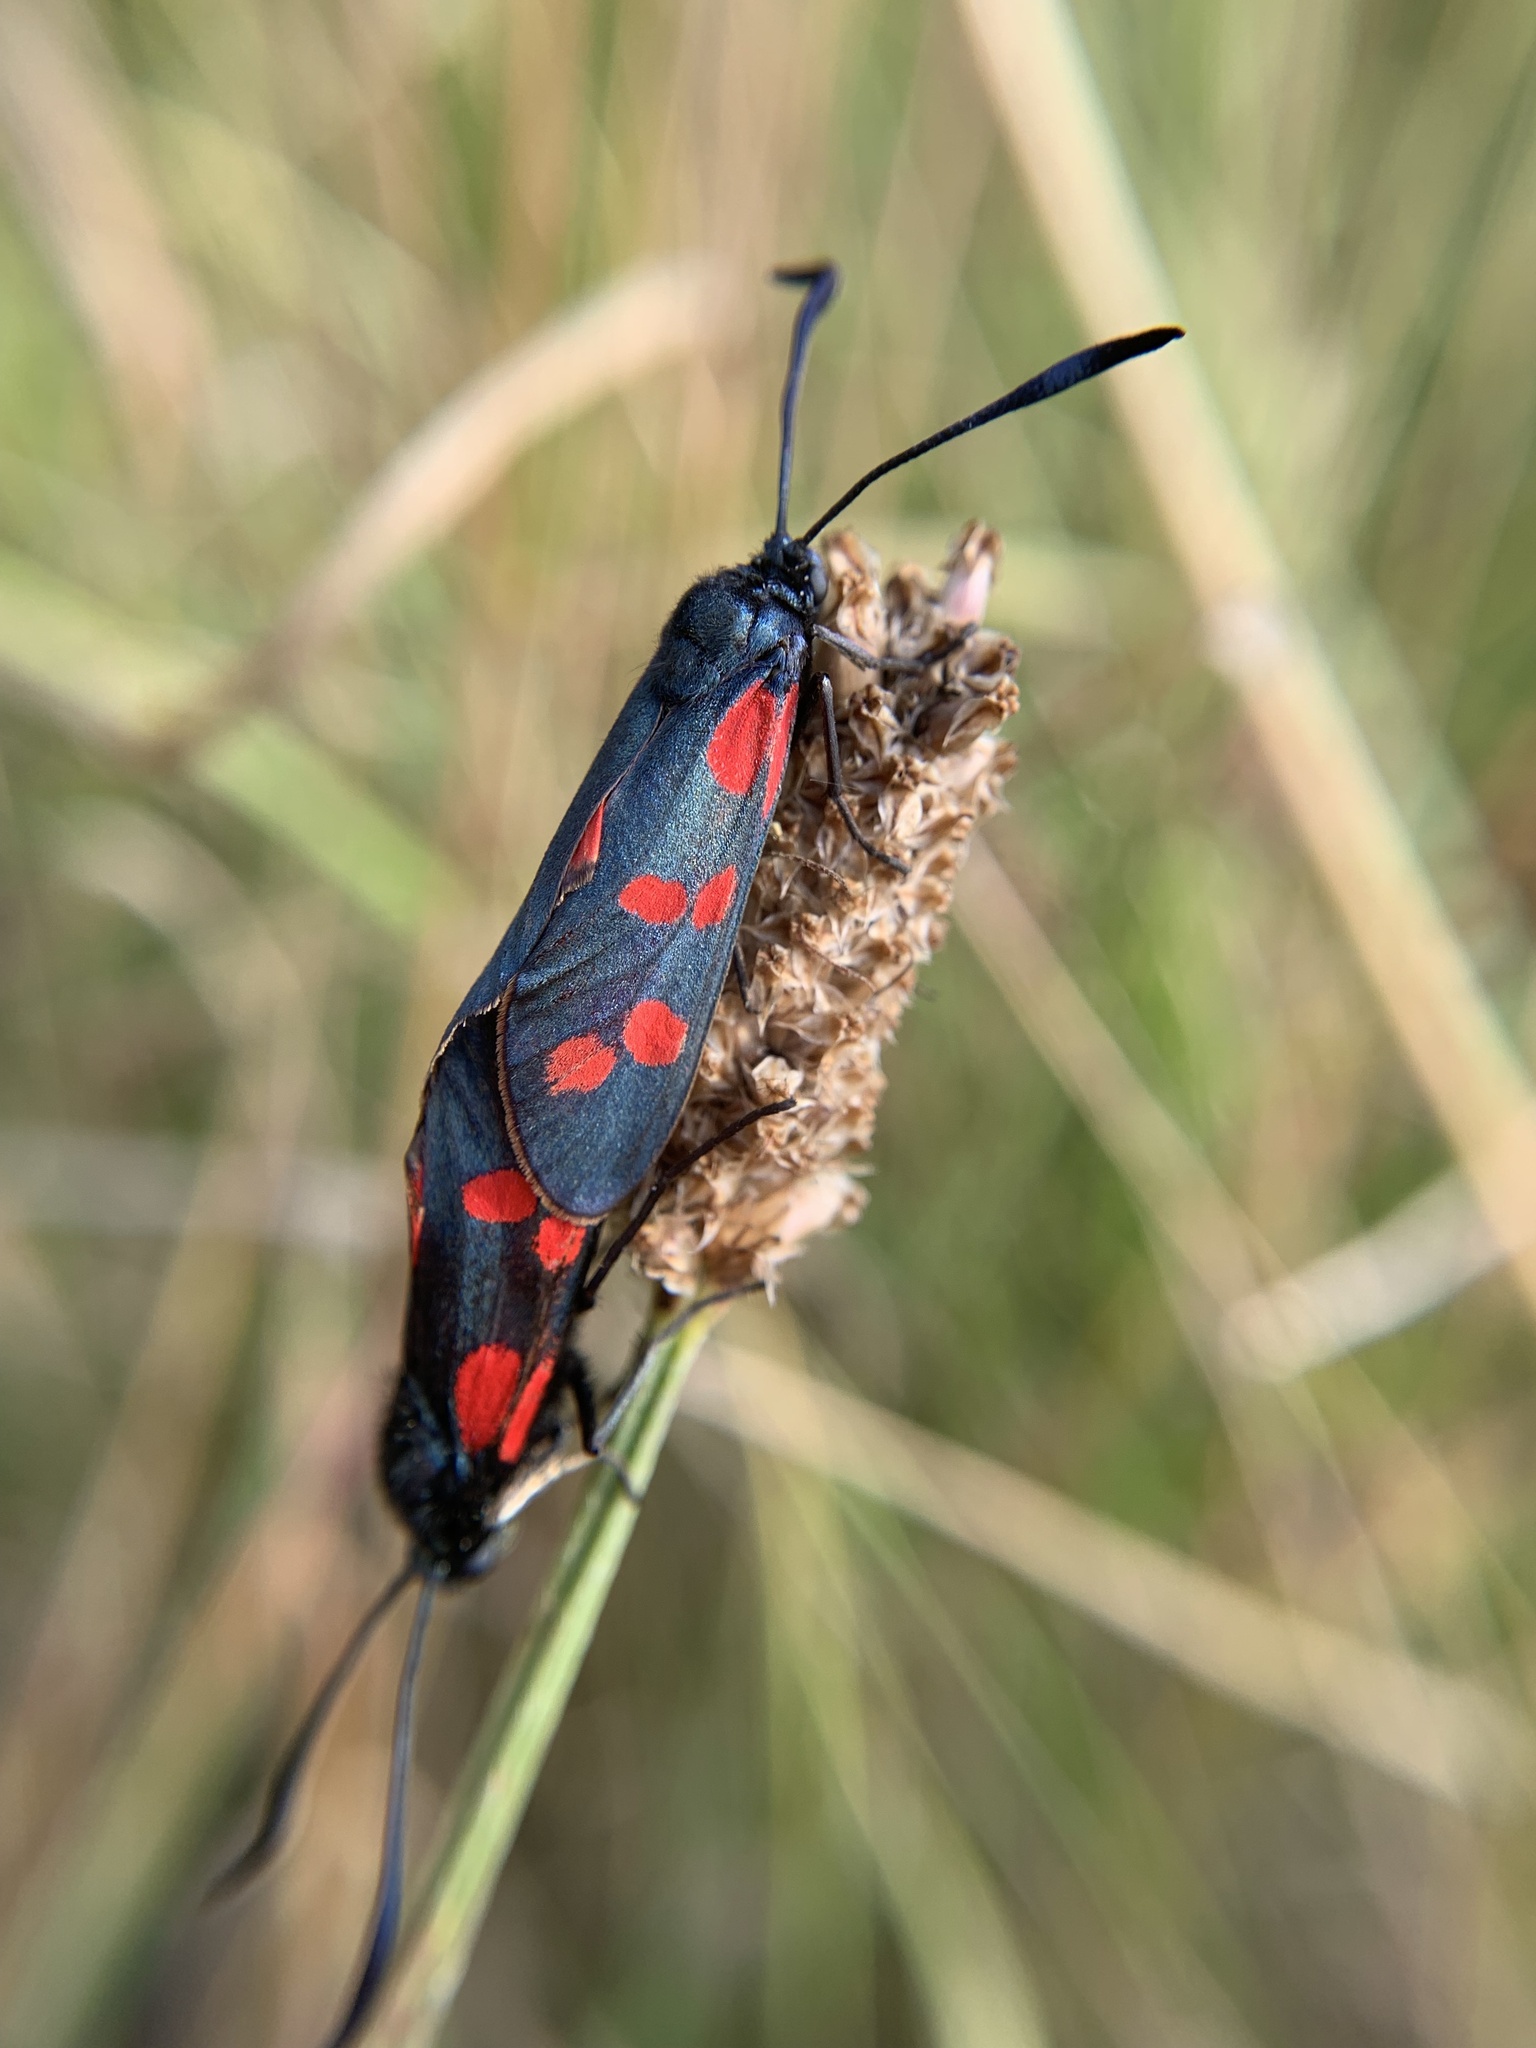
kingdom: Animalia
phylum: Arthropoda
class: Insecta
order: Lepidoptera
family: Zygaenidae
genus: Zygaena
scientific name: Zygaena filipendulae
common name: Six-spot burnet
